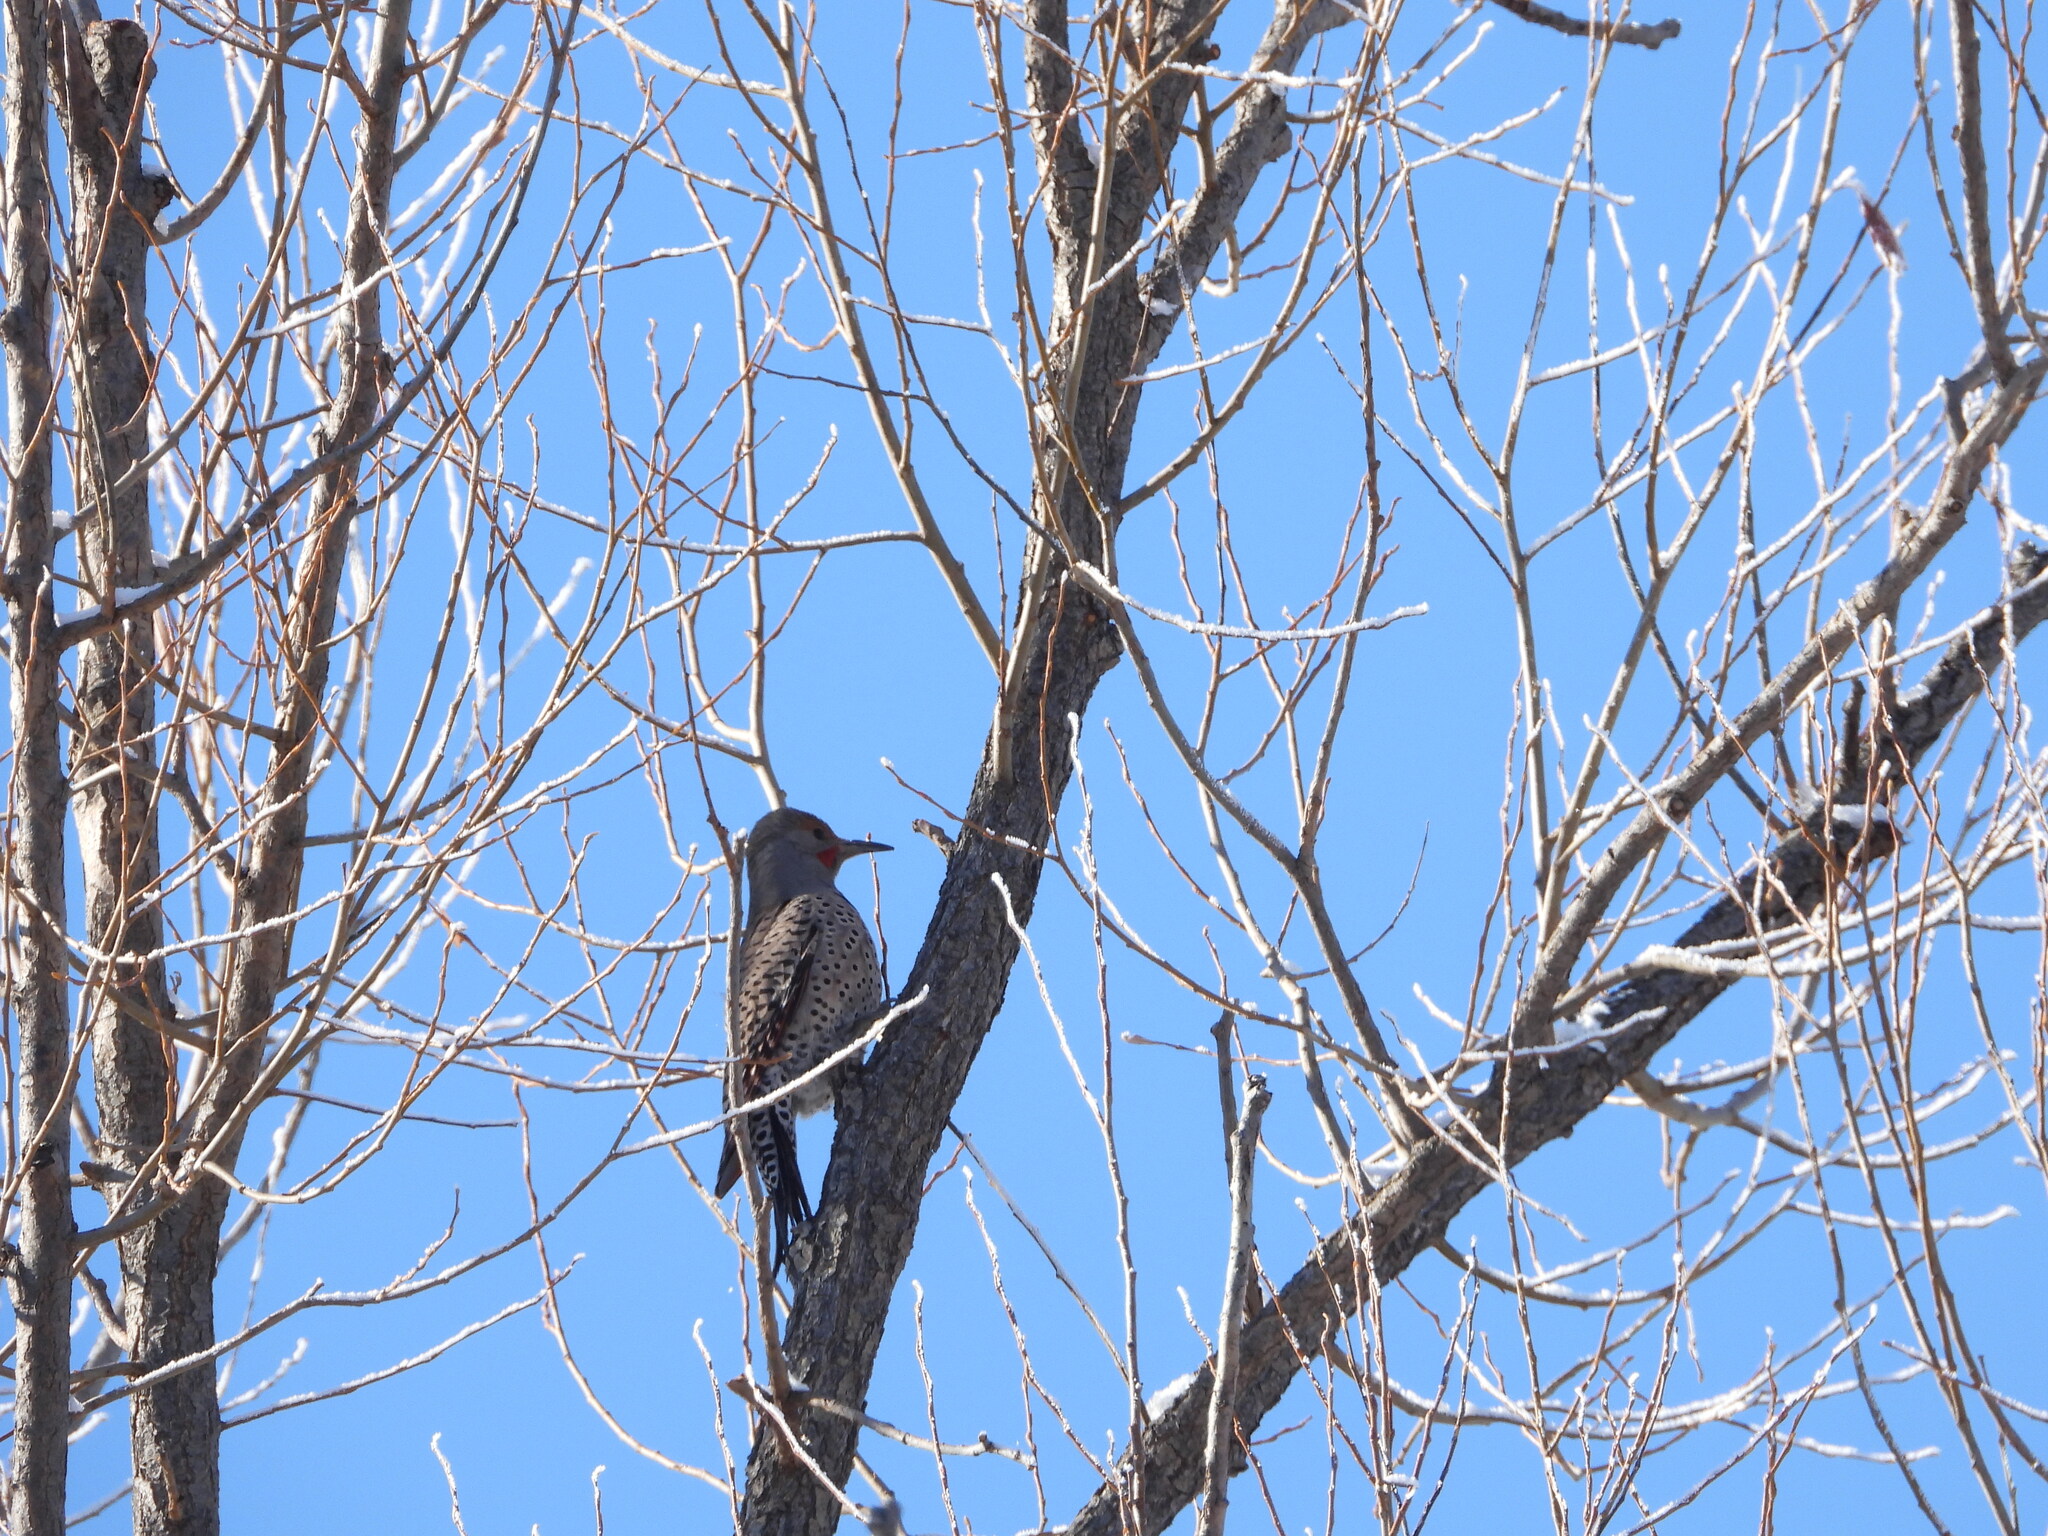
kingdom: Animalia
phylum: Chordata
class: Aves
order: Piciformes
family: Picidae
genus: Colaptes
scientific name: Colaptes auratus
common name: Northern flicker
